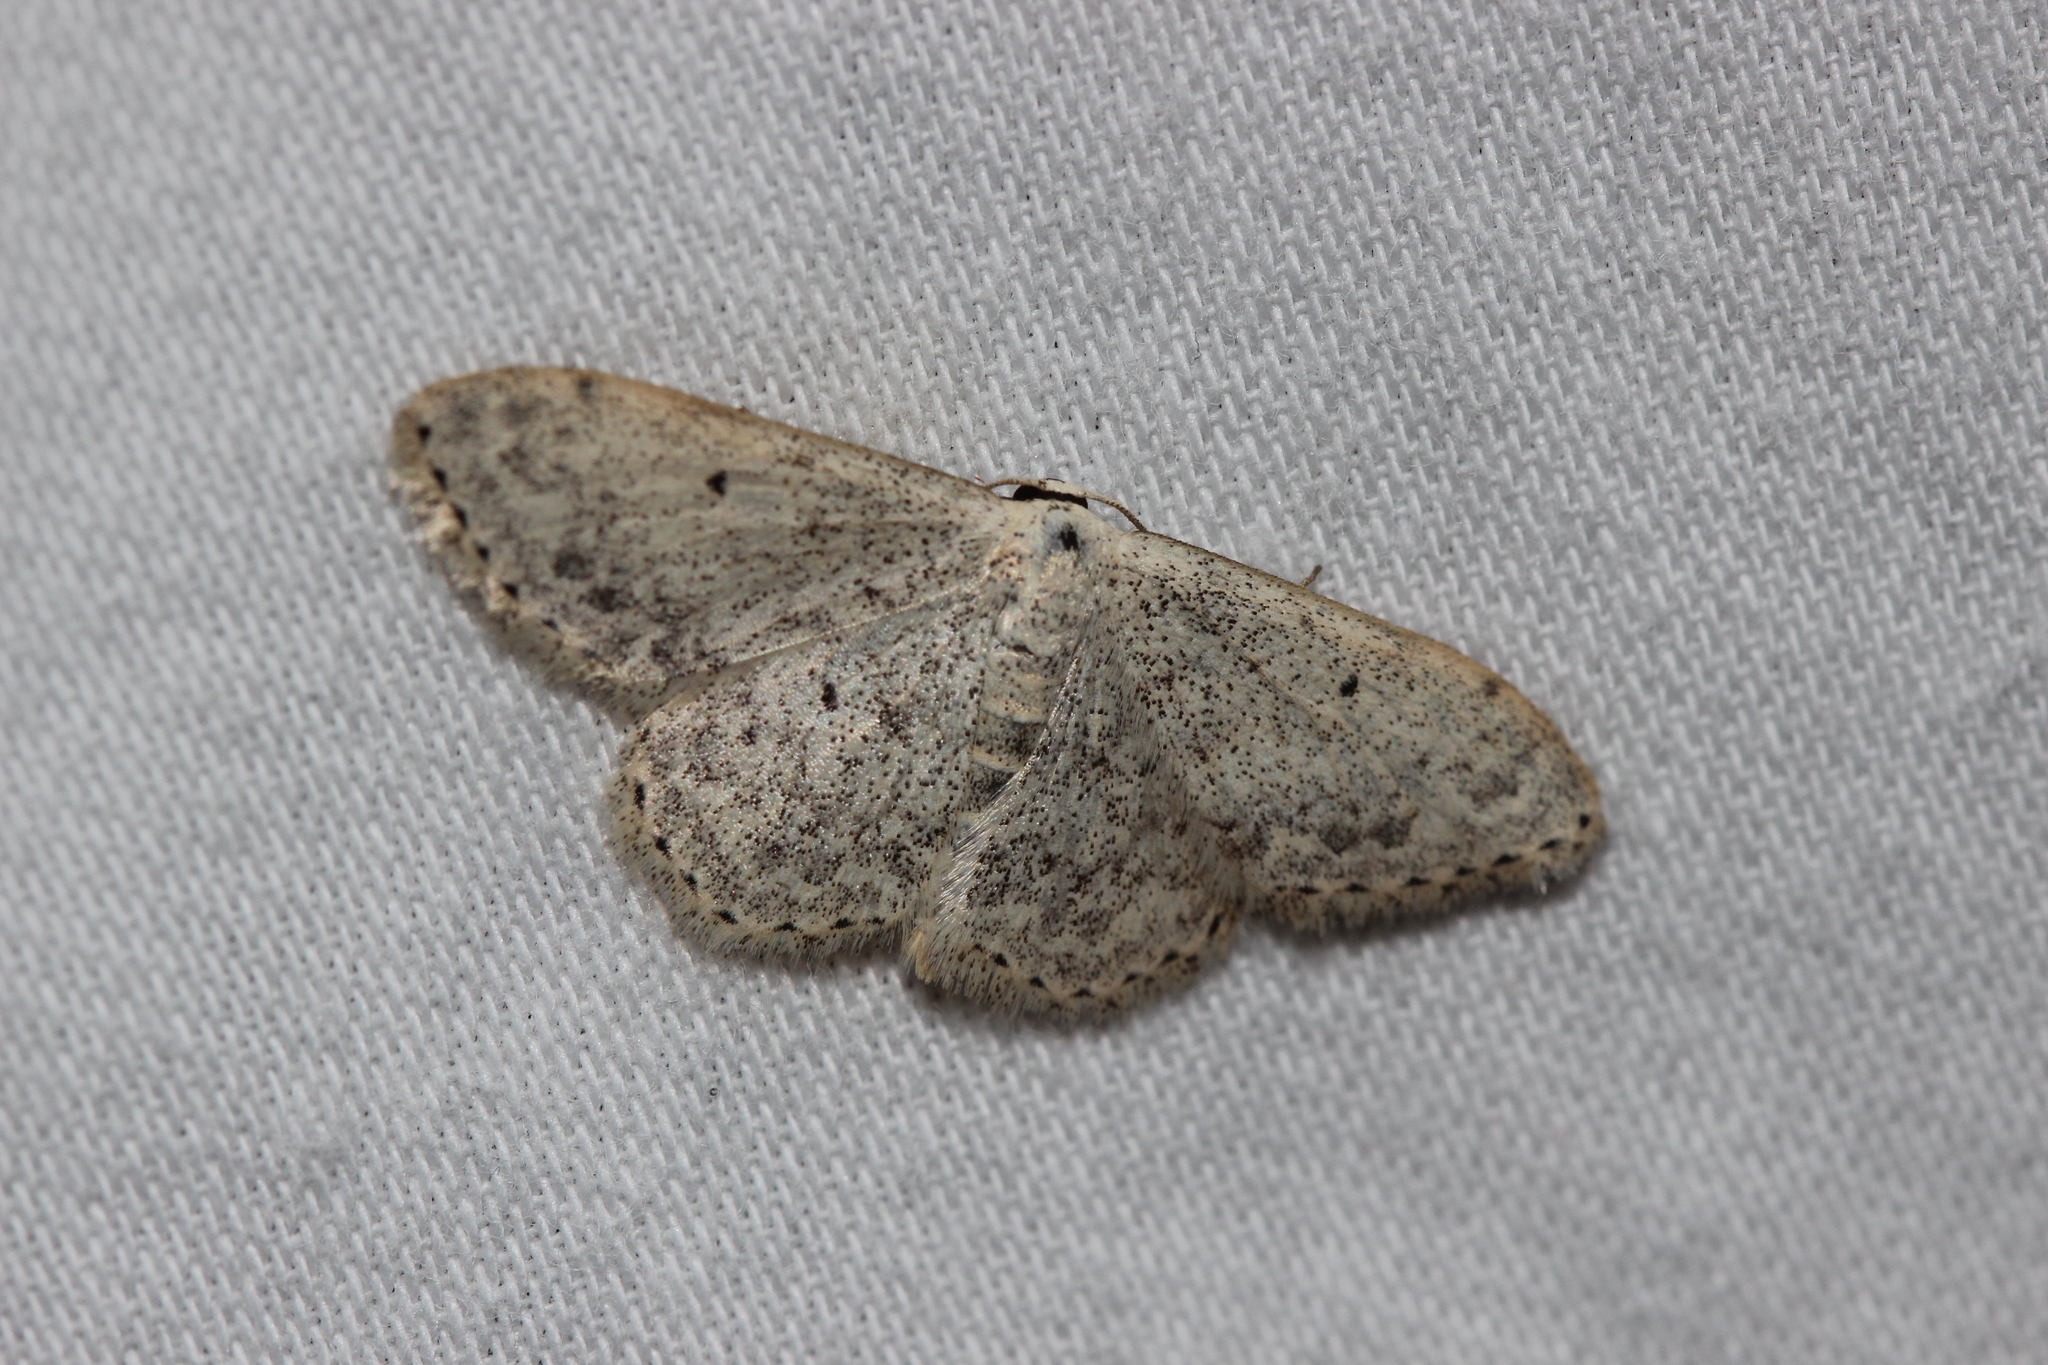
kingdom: Animalia
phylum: Arthropoda
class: Insecta
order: Lepidoptera
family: Geometridae
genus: Scopula
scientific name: Scopula marginepunctata
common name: Mullein wave
